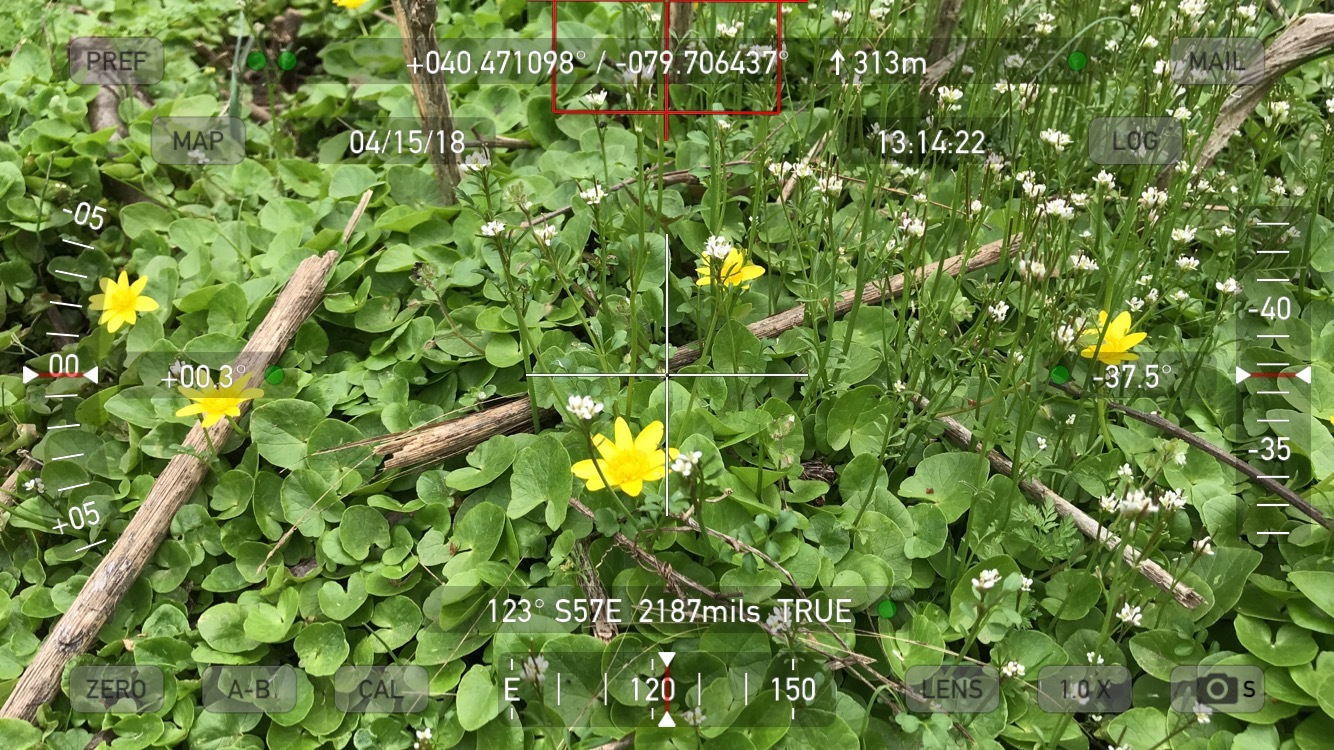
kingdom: Plantae
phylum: Tracheophyta
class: Magnoliopsida
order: Brassicales
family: Brassicaceae
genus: Cardamine
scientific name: Cardamine hirsuta
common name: Hairy bittercress
